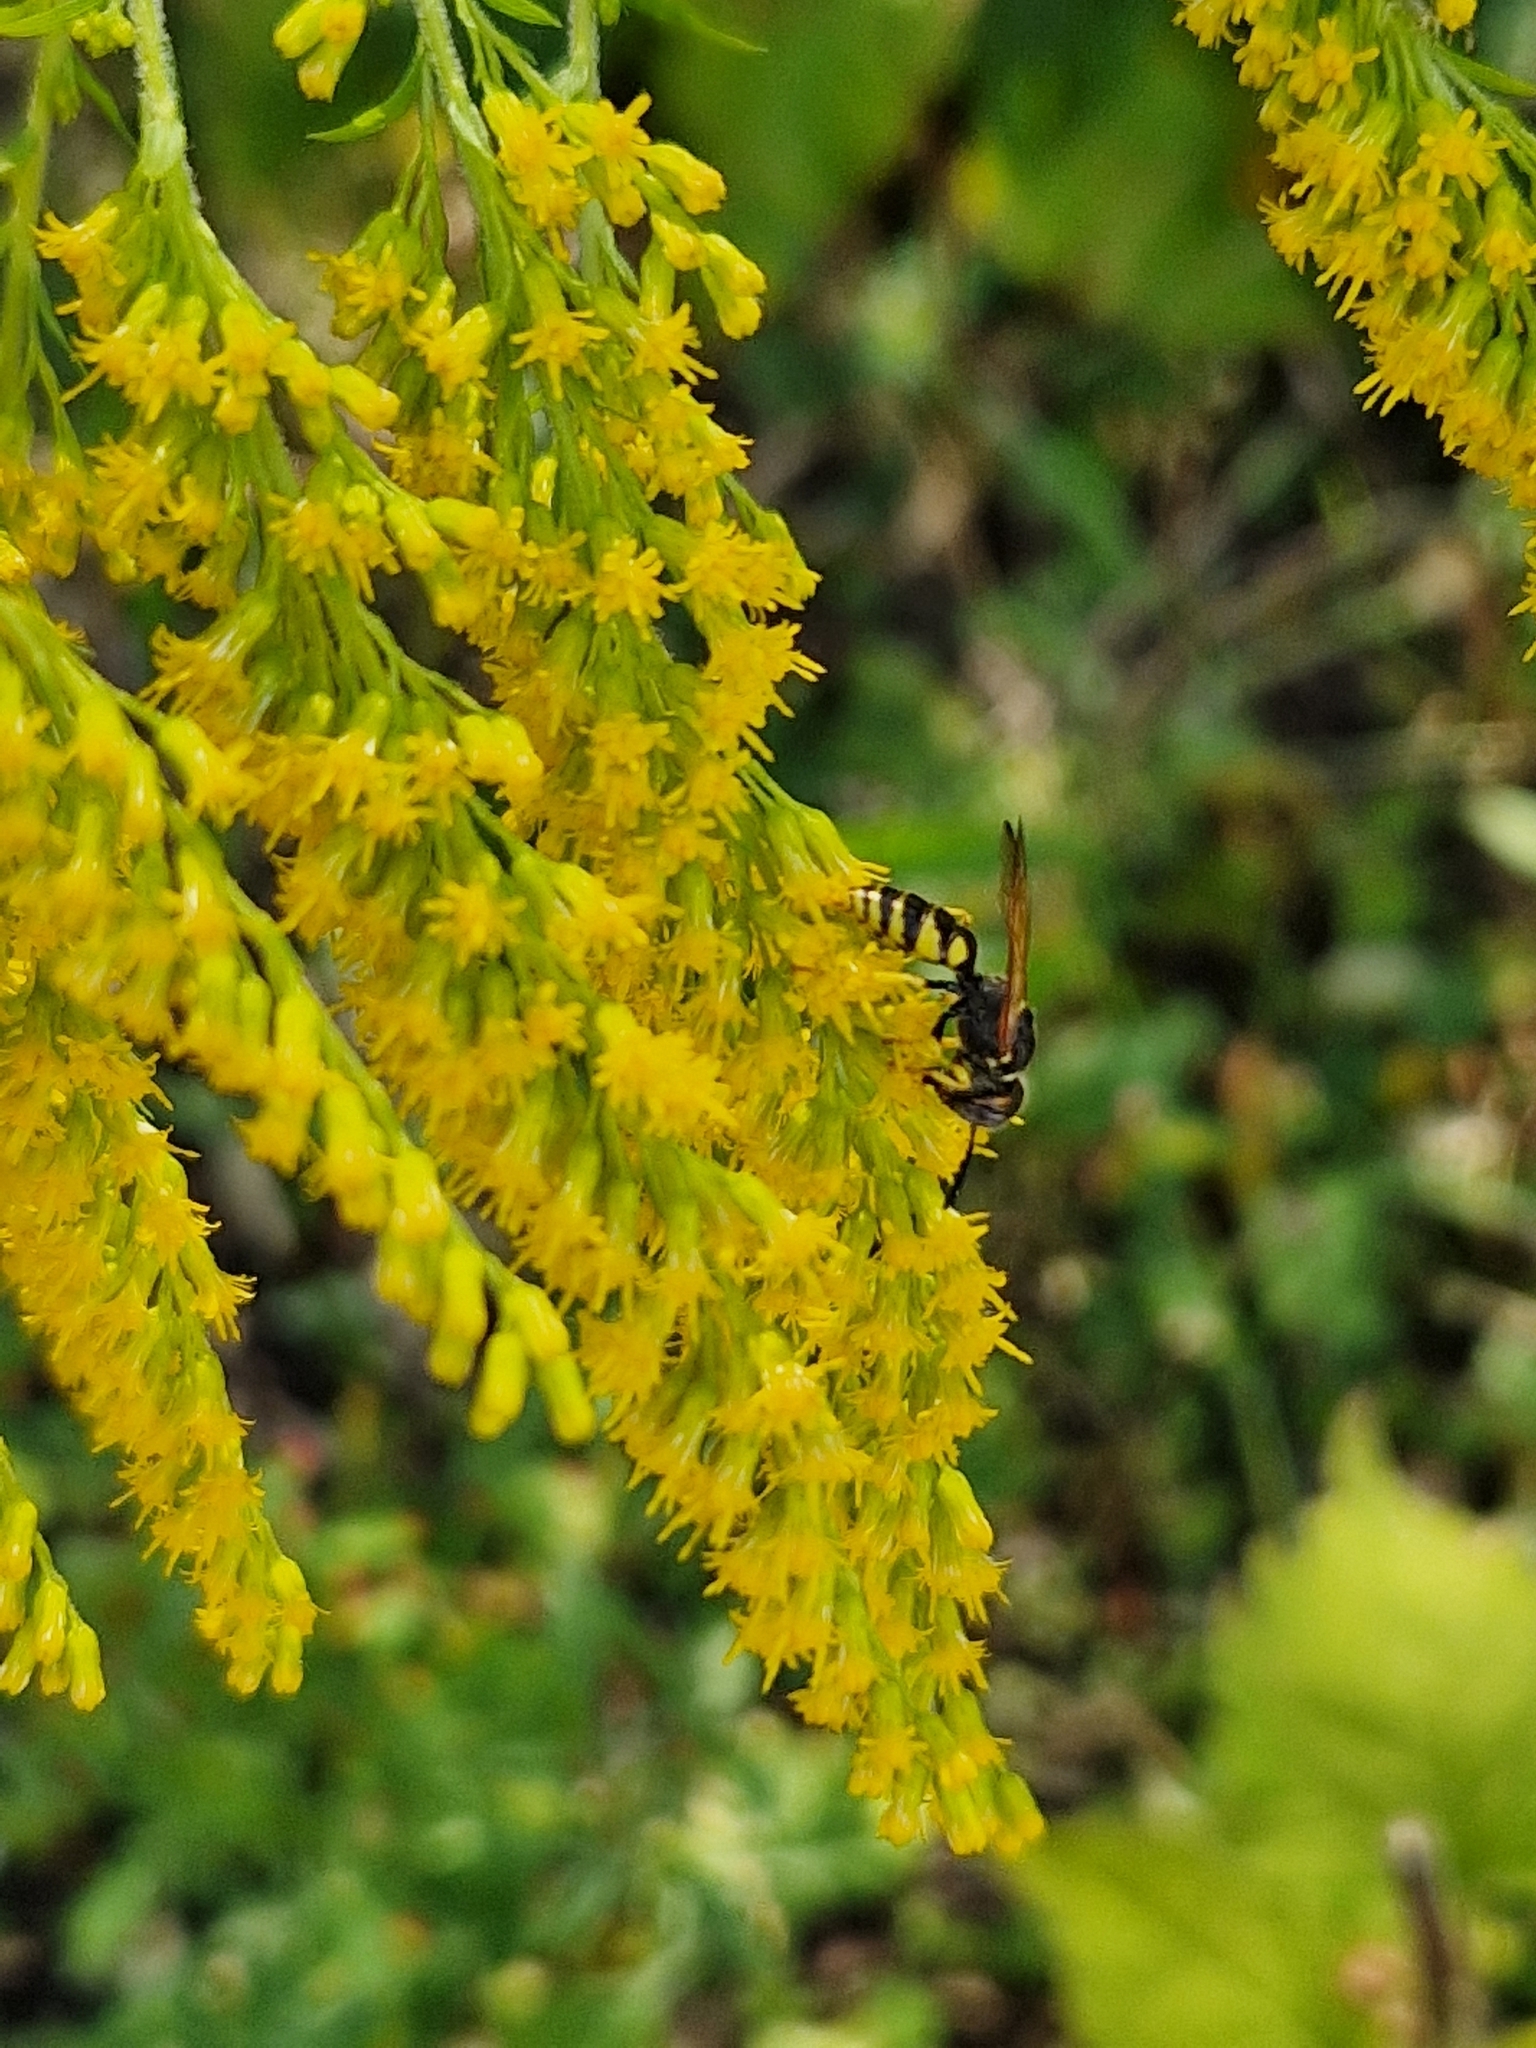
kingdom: Animalia
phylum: Arthropoda
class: Insecta
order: Hymenoptera
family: Crabronidae
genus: Philanthus
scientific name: Philanthus triangulum
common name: Bee wolf
